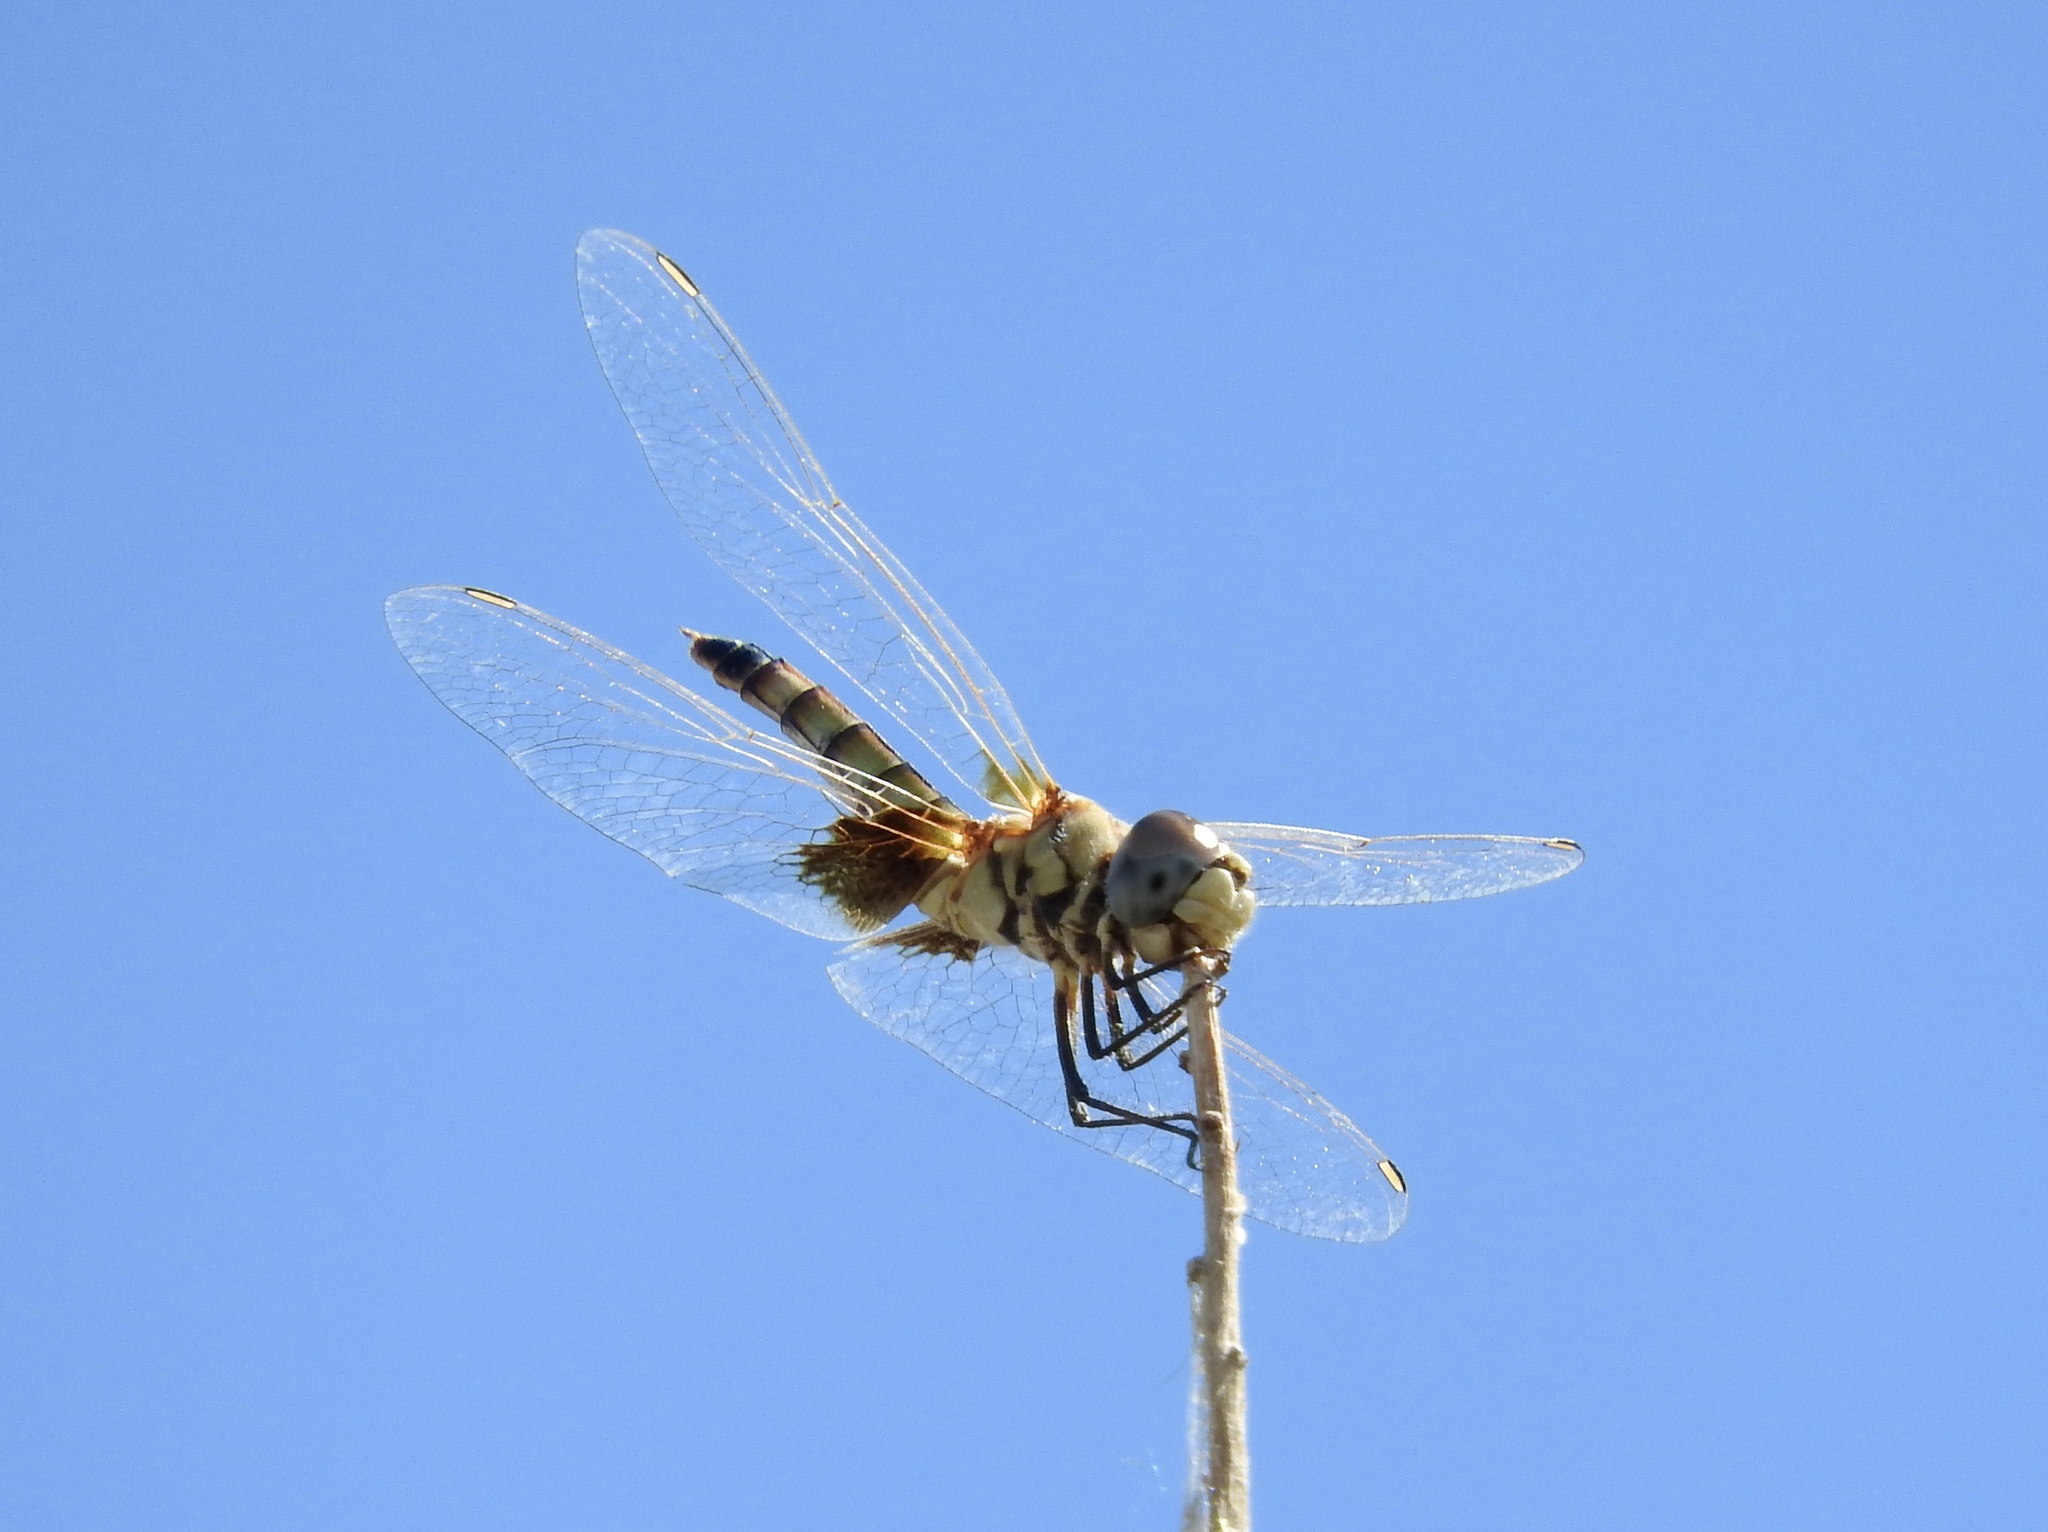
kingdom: Animalia
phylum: Arthropoda
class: Insecta
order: Odonata
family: Libellulidae
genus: Macrodiplax
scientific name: Macrodiplax balteata
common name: Marl pennant
